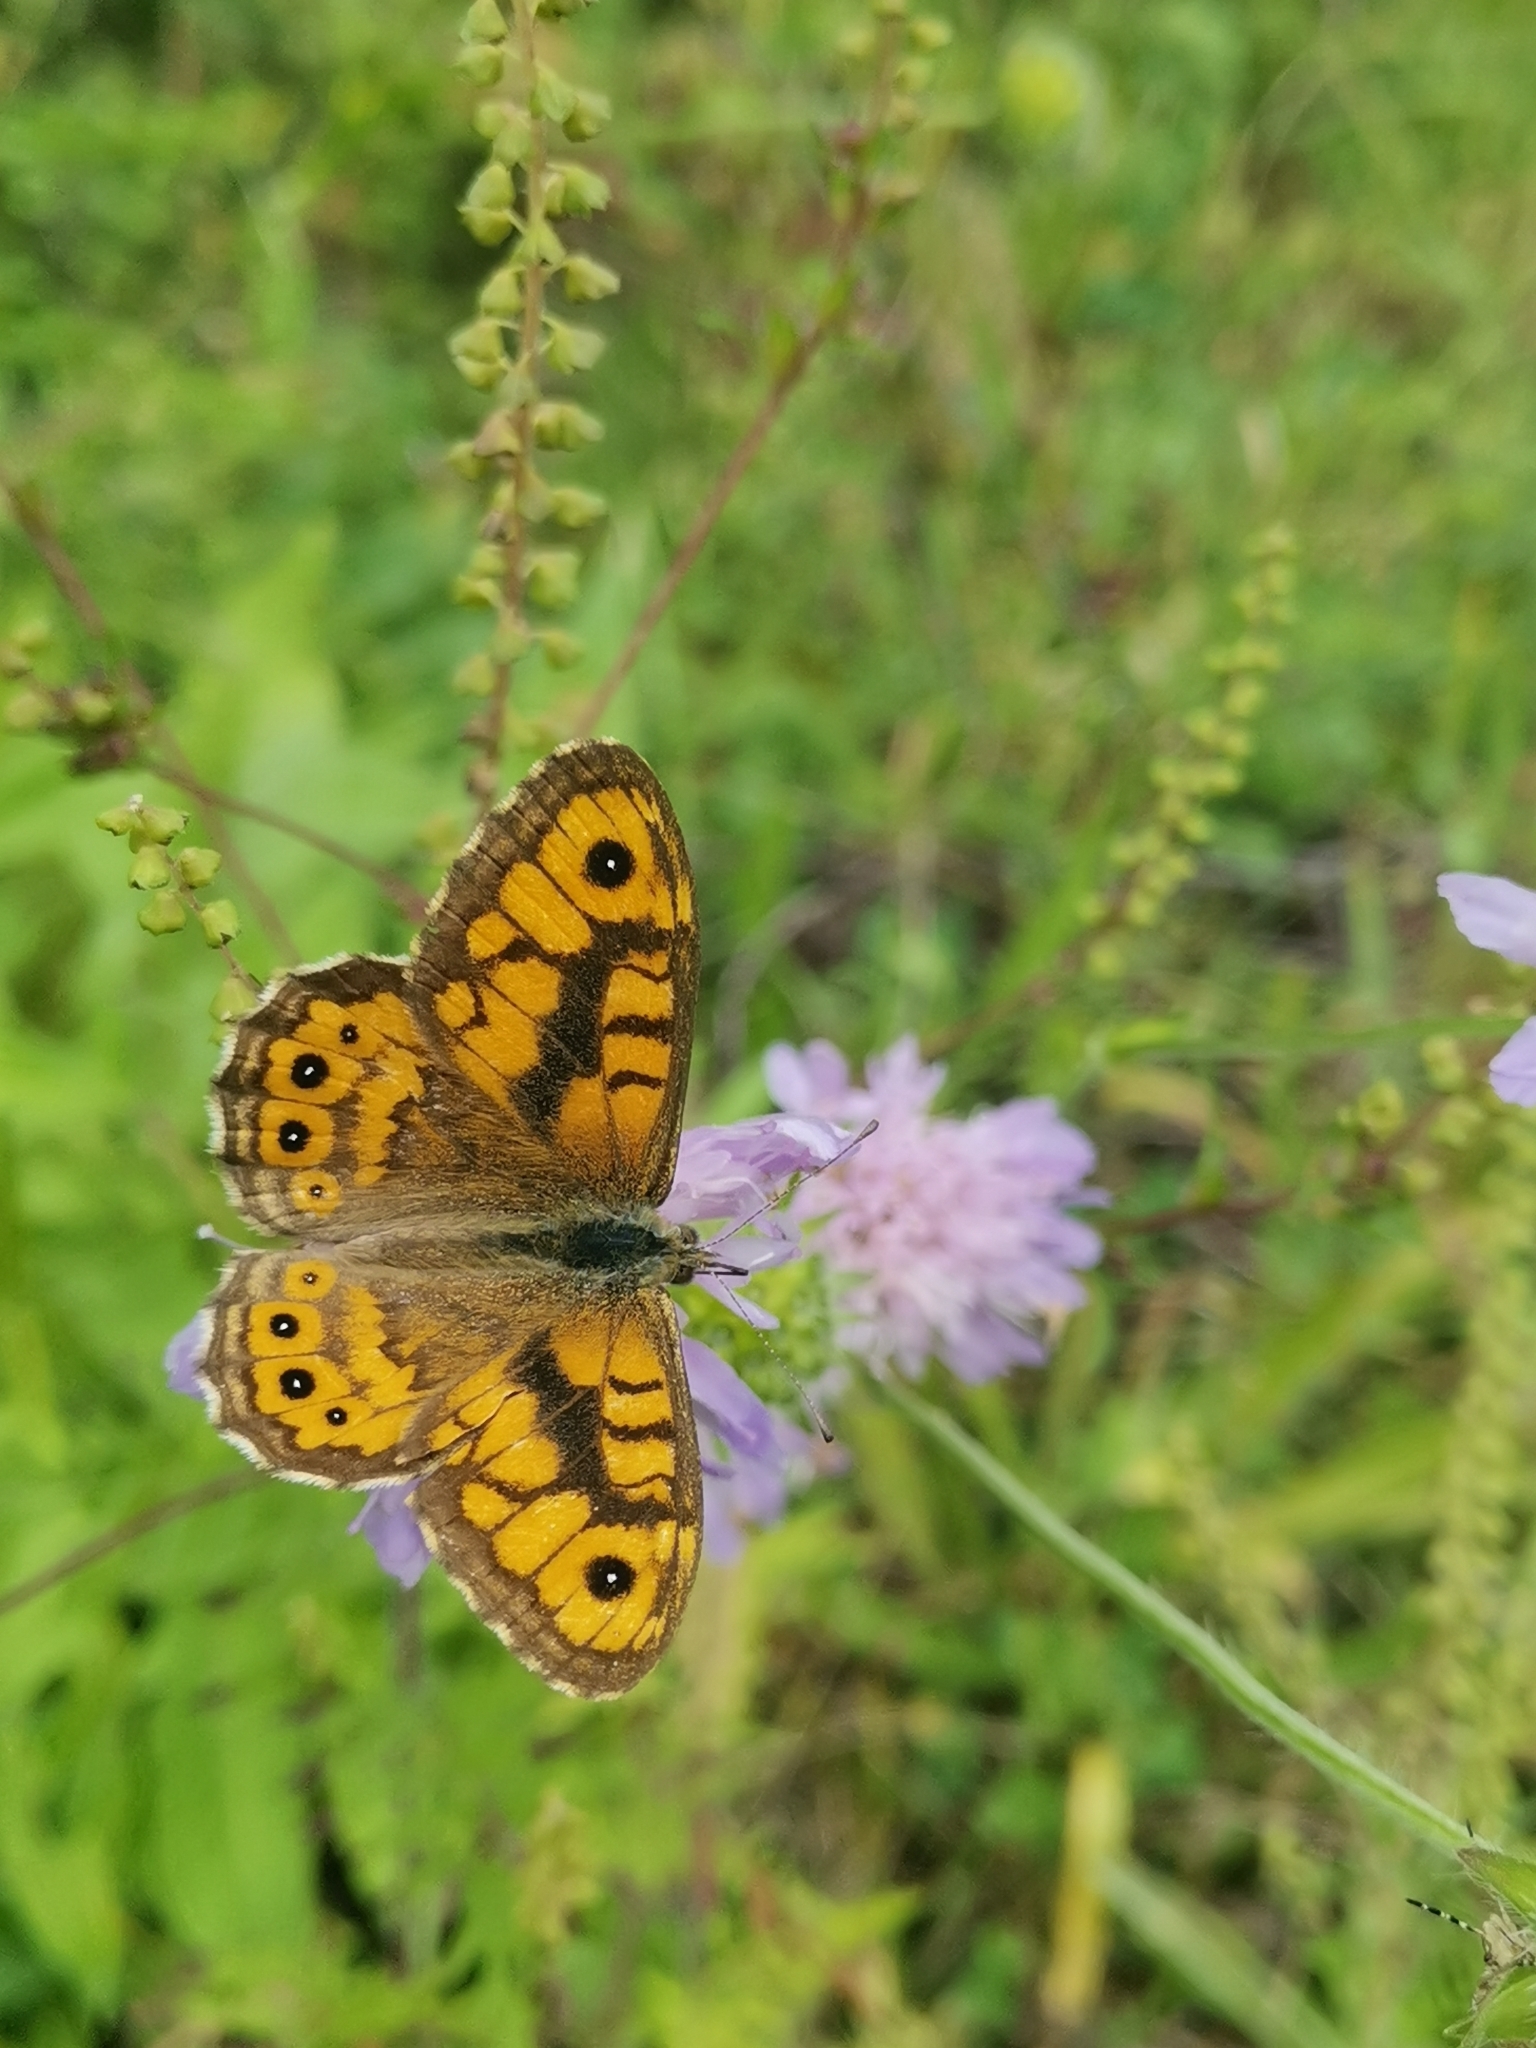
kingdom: Animalia
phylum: Arthropoda
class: Insecta
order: Lepidoptera
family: Nymphalidae
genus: Pararge
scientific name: Pararge Lasiommata megera
